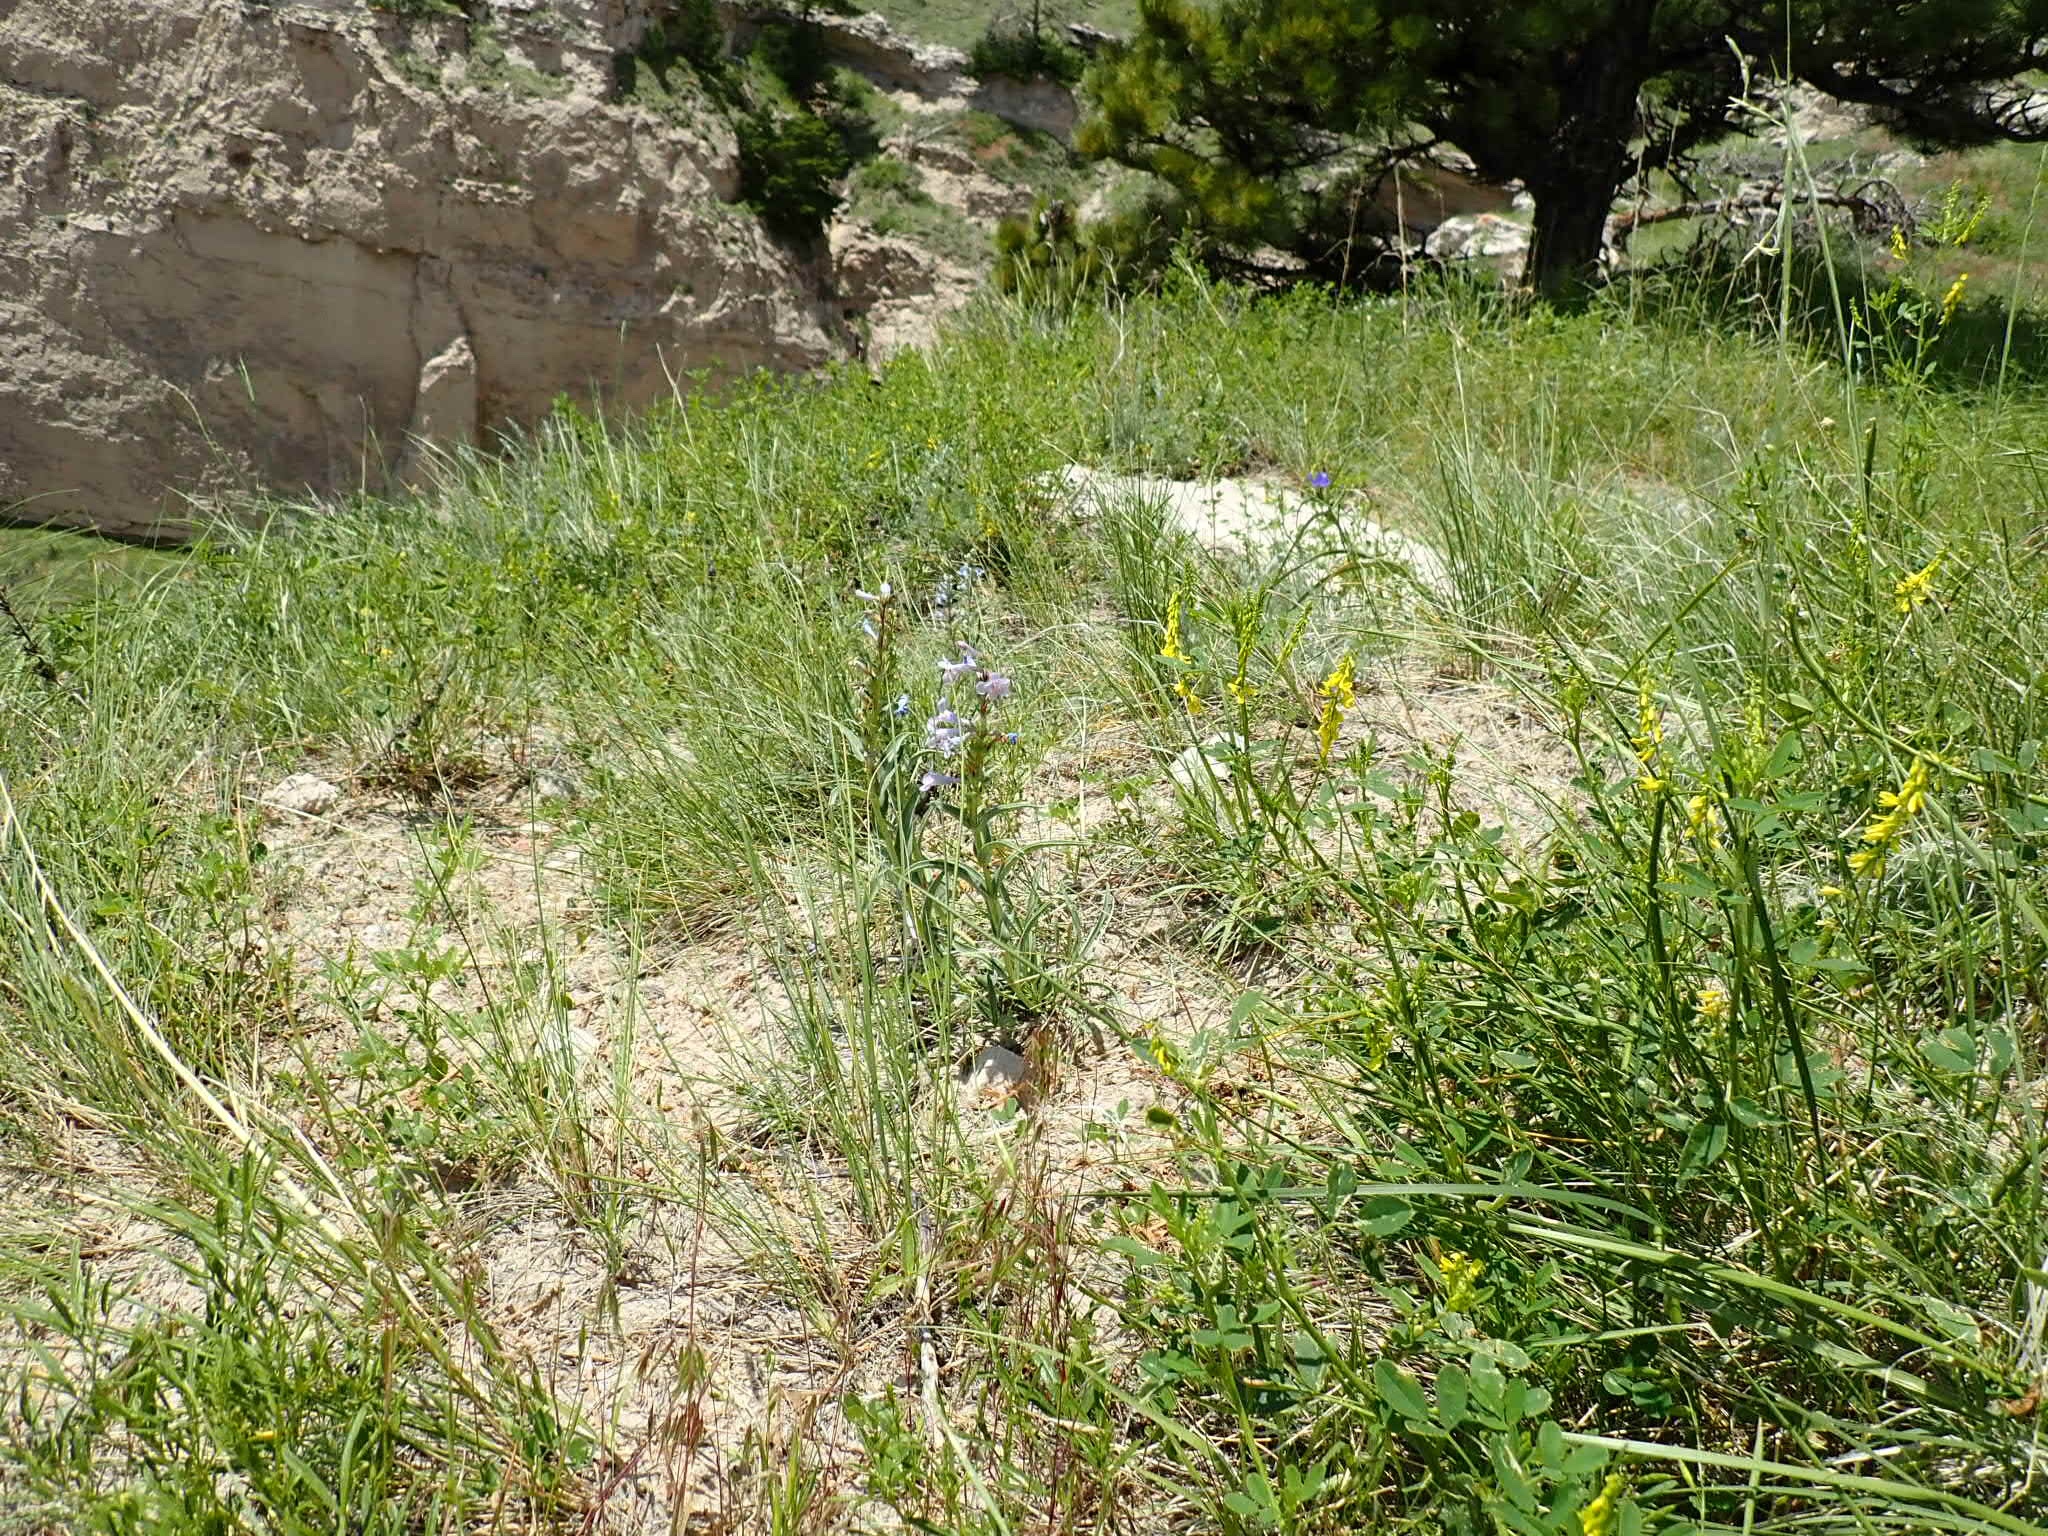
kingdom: Plantae
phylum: Tracheophyta
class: Magnoliopsida
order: Lamiales
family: Plantaginaceae
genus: Penstemon
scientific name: Penstemon angustifolius
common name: Narrow beardtongue
